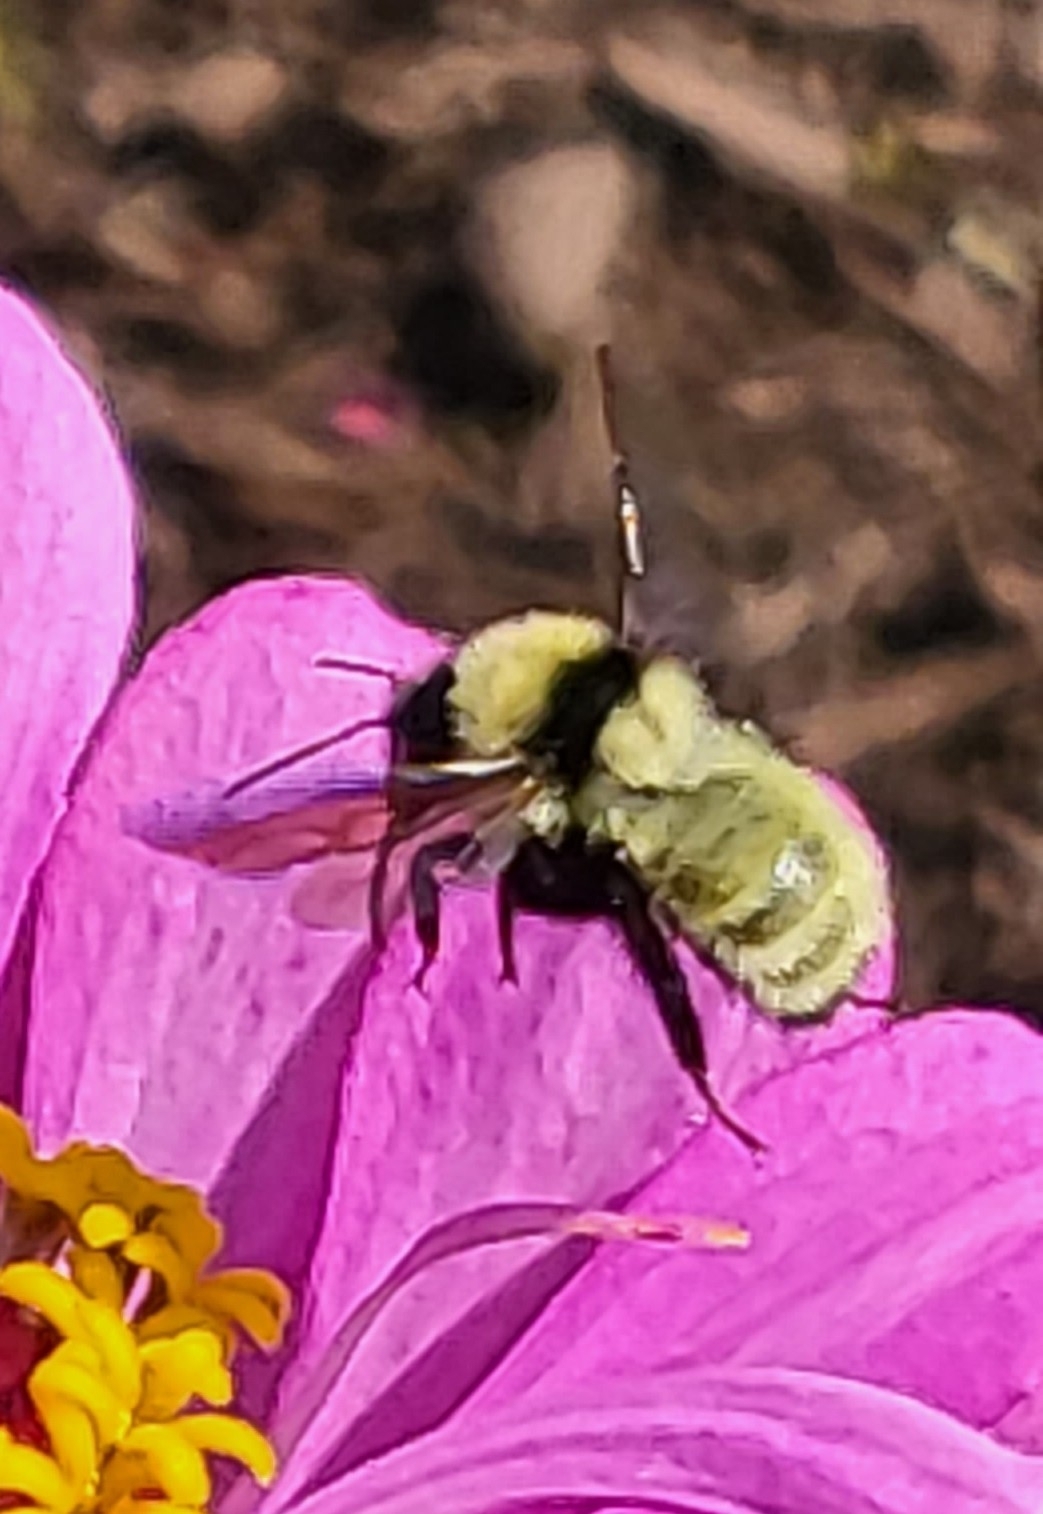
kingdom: Animalia
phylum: Arthropoda
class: Insecta
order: Hymenoptera
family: Apidae
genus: Bombus
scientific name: Bombus fervidus
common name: Yellow bumble bee
